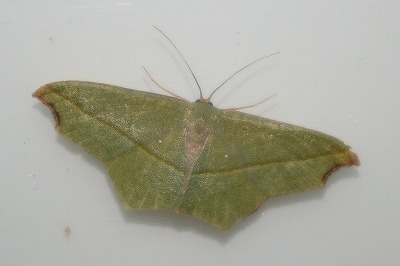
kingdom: Animalia
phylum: Arthropoda
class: Insecta
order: Lepidoptera
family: Geometridae
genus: Traminda
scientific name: Traminda aventiaria
